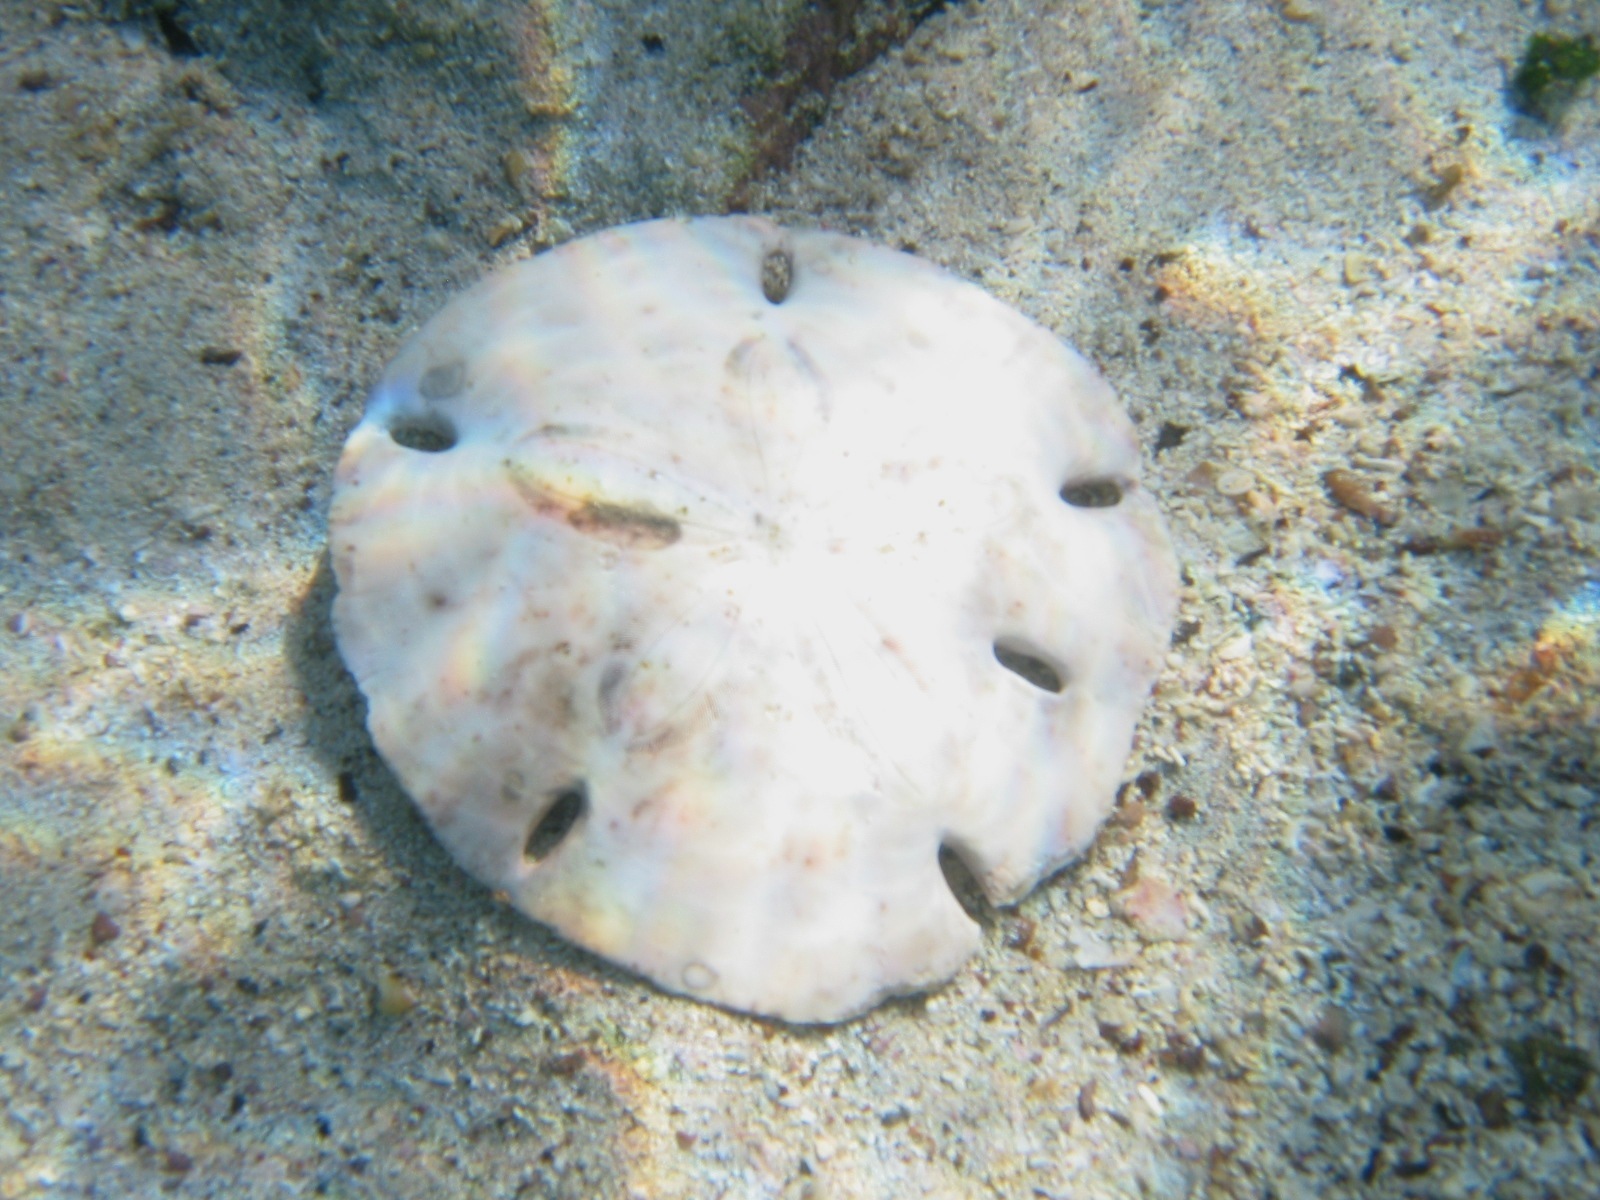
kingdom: Animalia
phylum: Echinodermata
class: Echinoidea
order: Echinolampadacea
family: Mellitidae
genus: Encope
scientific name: Encope galapagensis
